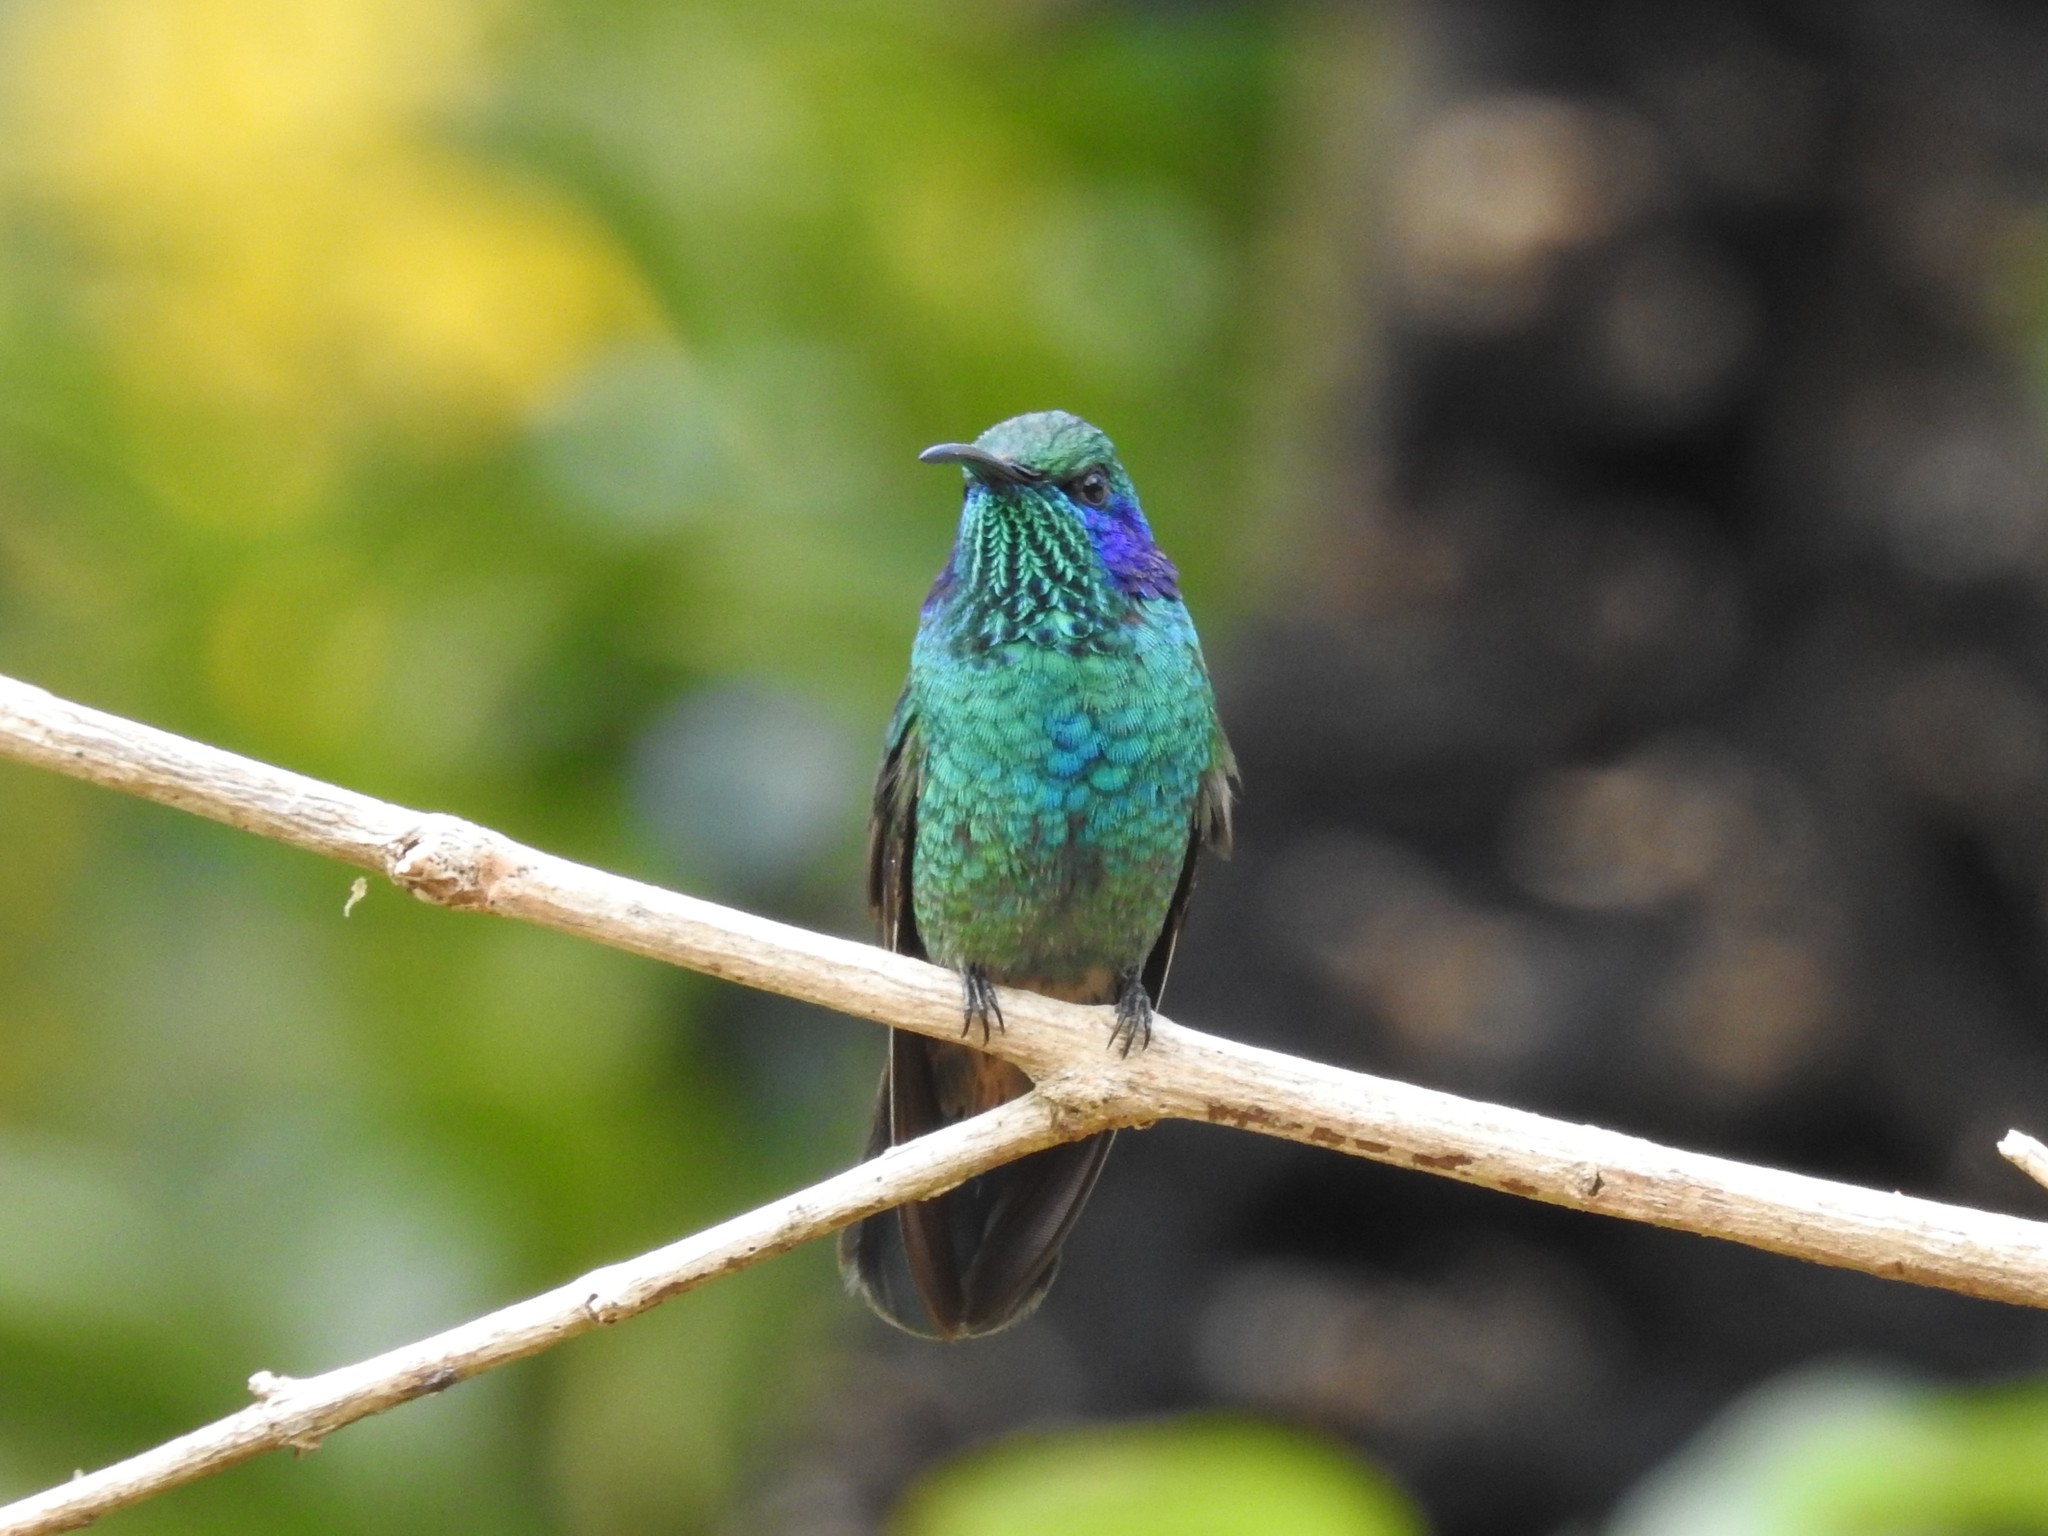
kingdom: Animalia
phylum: Chordata
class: Aves
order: Apodiformes
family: Trochilidae
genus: Colibri
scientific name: Colibri cyanotus
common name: Lesser violetear
